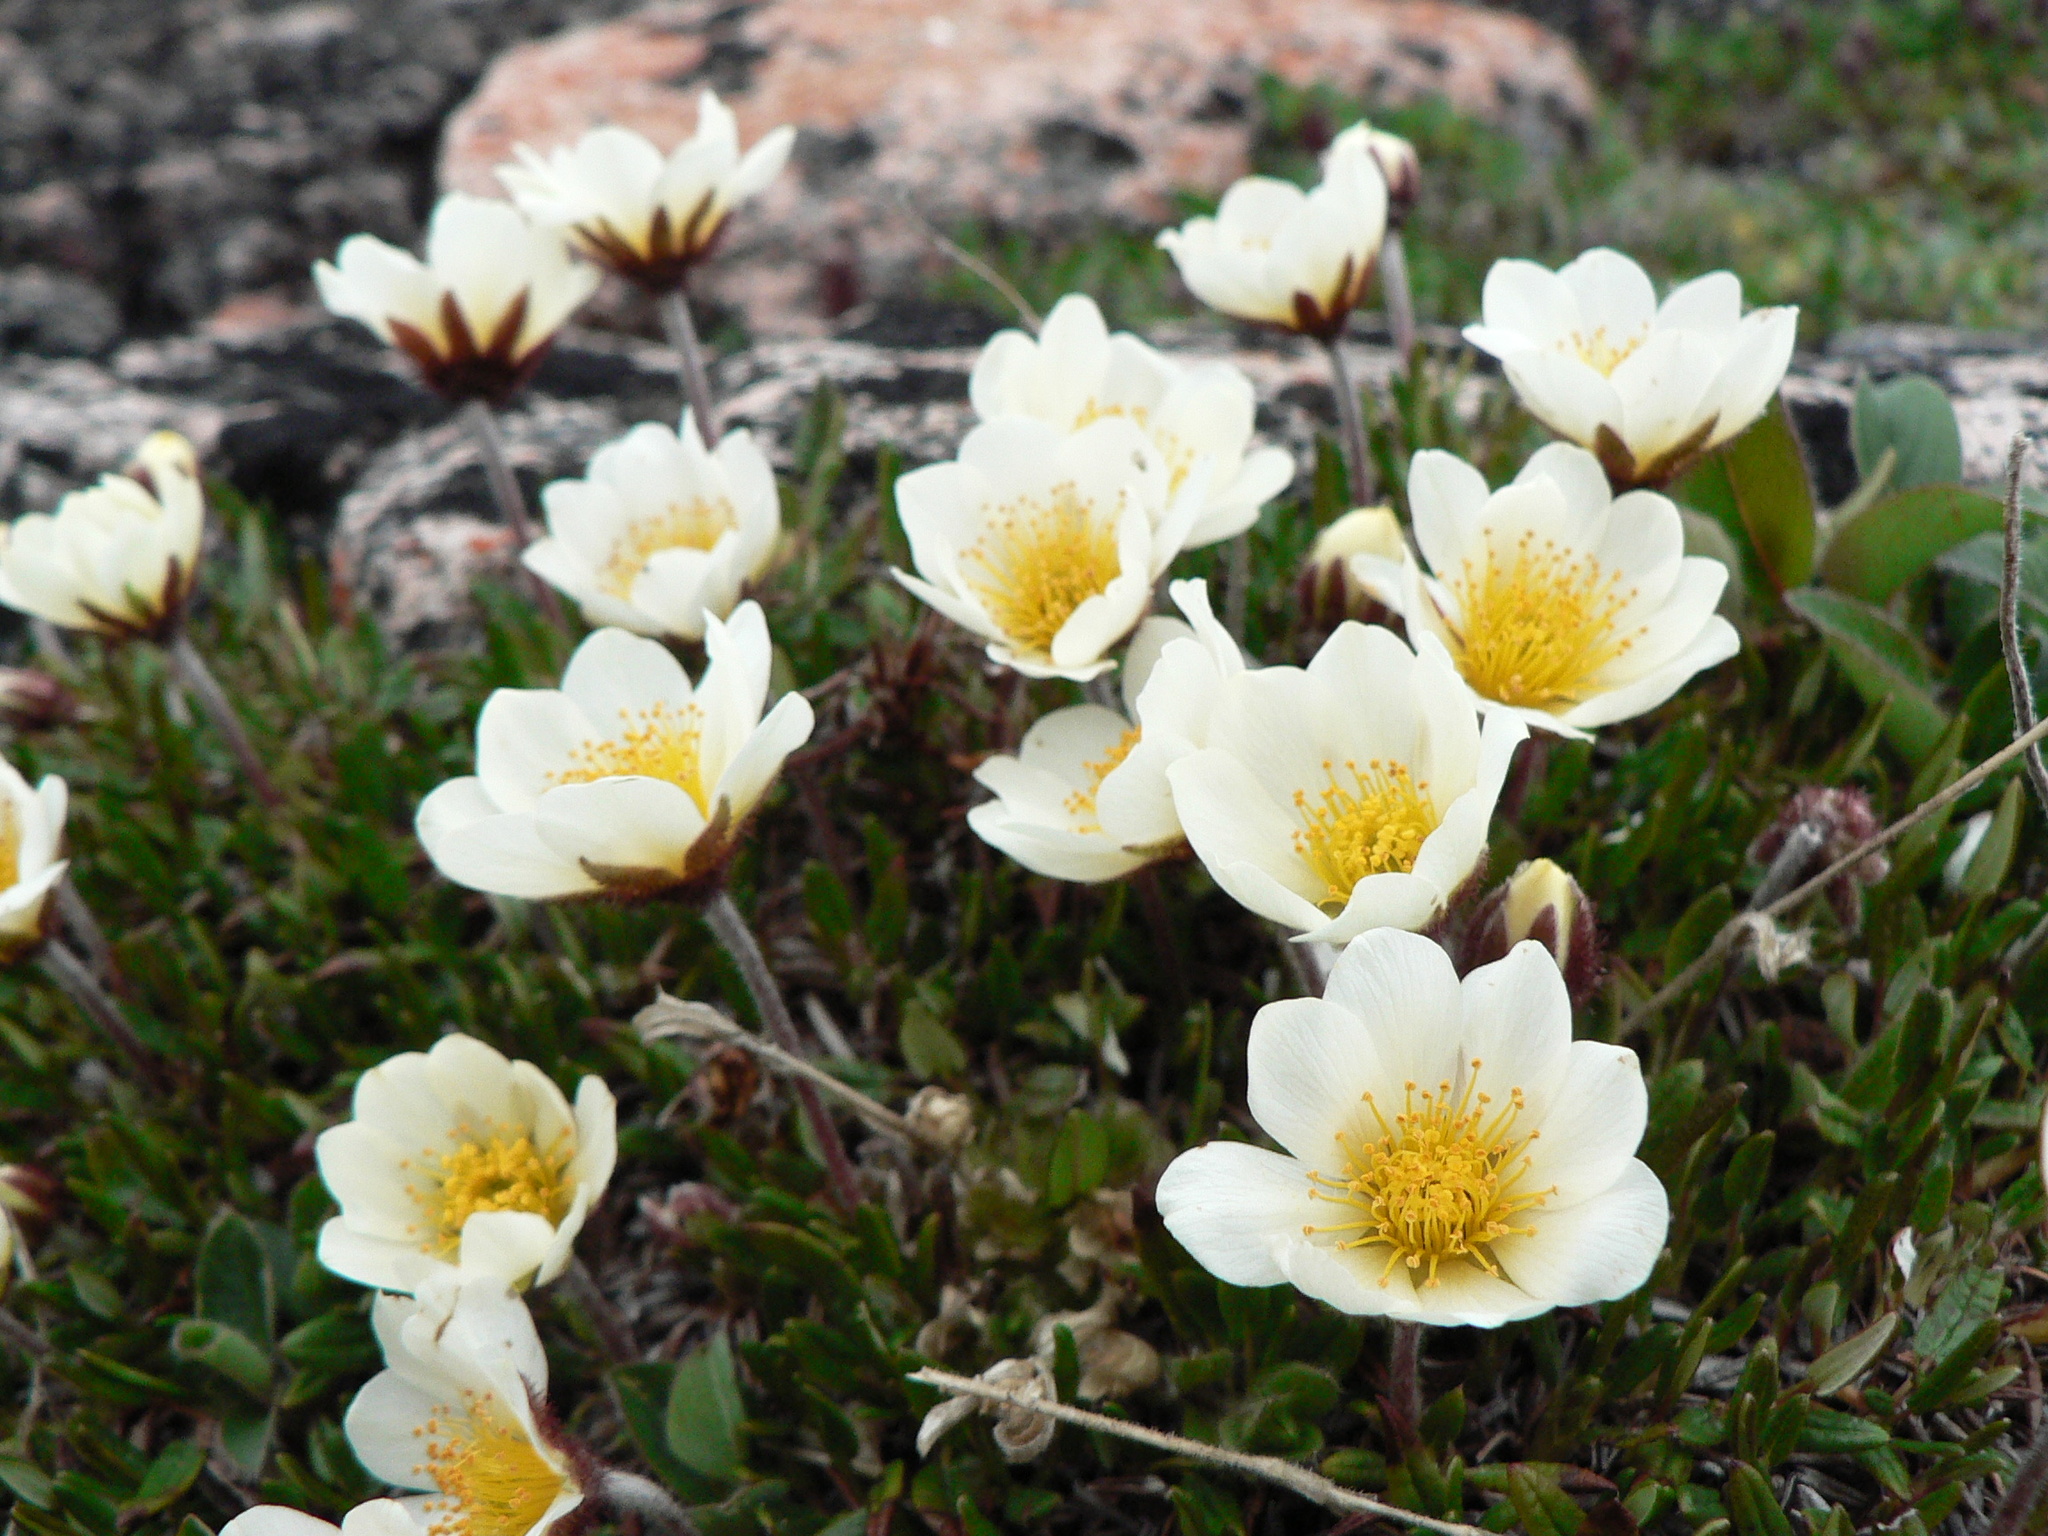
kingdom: Plantae
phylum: Tracheophyta
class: Magnoliopsida
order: Rosales
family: Rosaceae
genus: Dryas
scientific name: Dryas integrifolia
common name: Entire-leaved mountain avens
